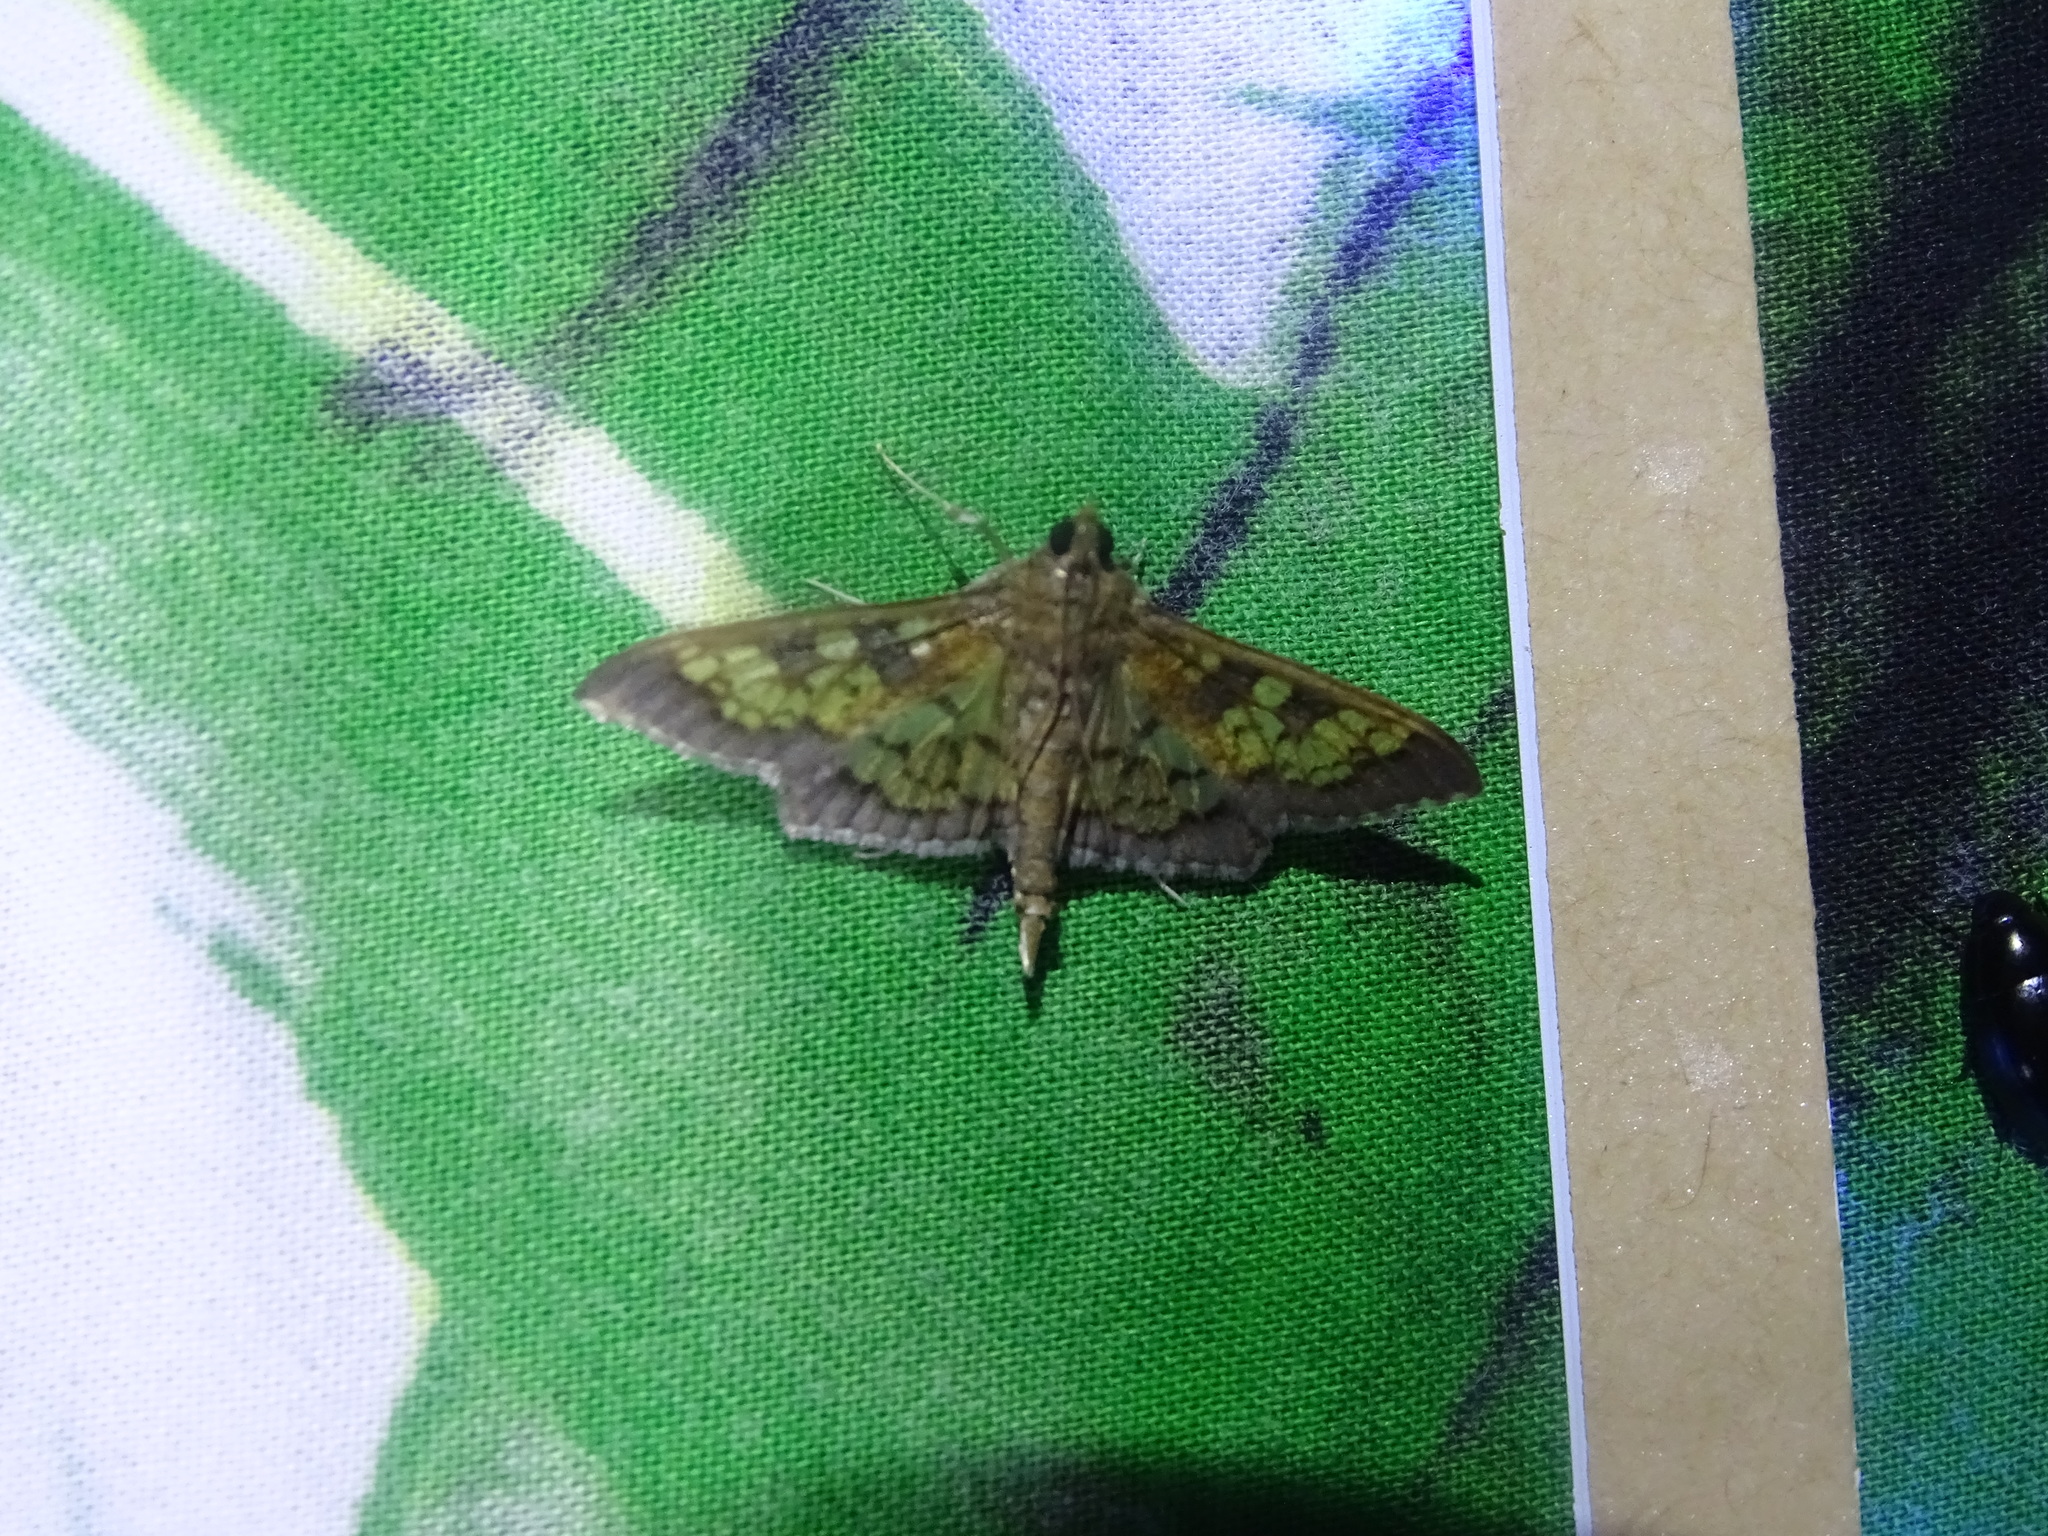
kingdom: Animalia
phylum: Arthropoda
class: Insecta
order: Lepidoptera
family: Crambidae
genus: Epipagis
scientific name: Epipagis adipaloides
